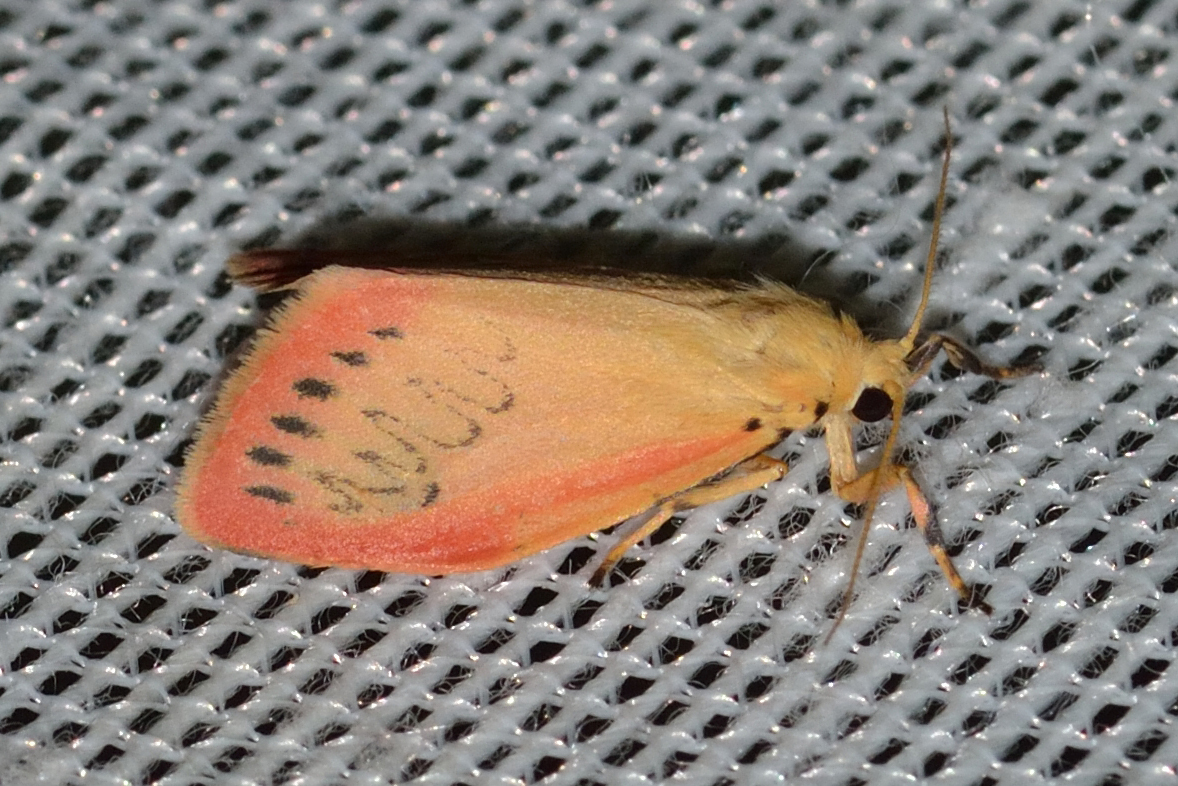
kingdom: Animalia
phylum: Arthropoda
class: Insecta
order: Lepidoptera
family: Erebidae
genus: Miltochrista
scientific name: Miltochrista miniata
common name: Rosy footman
